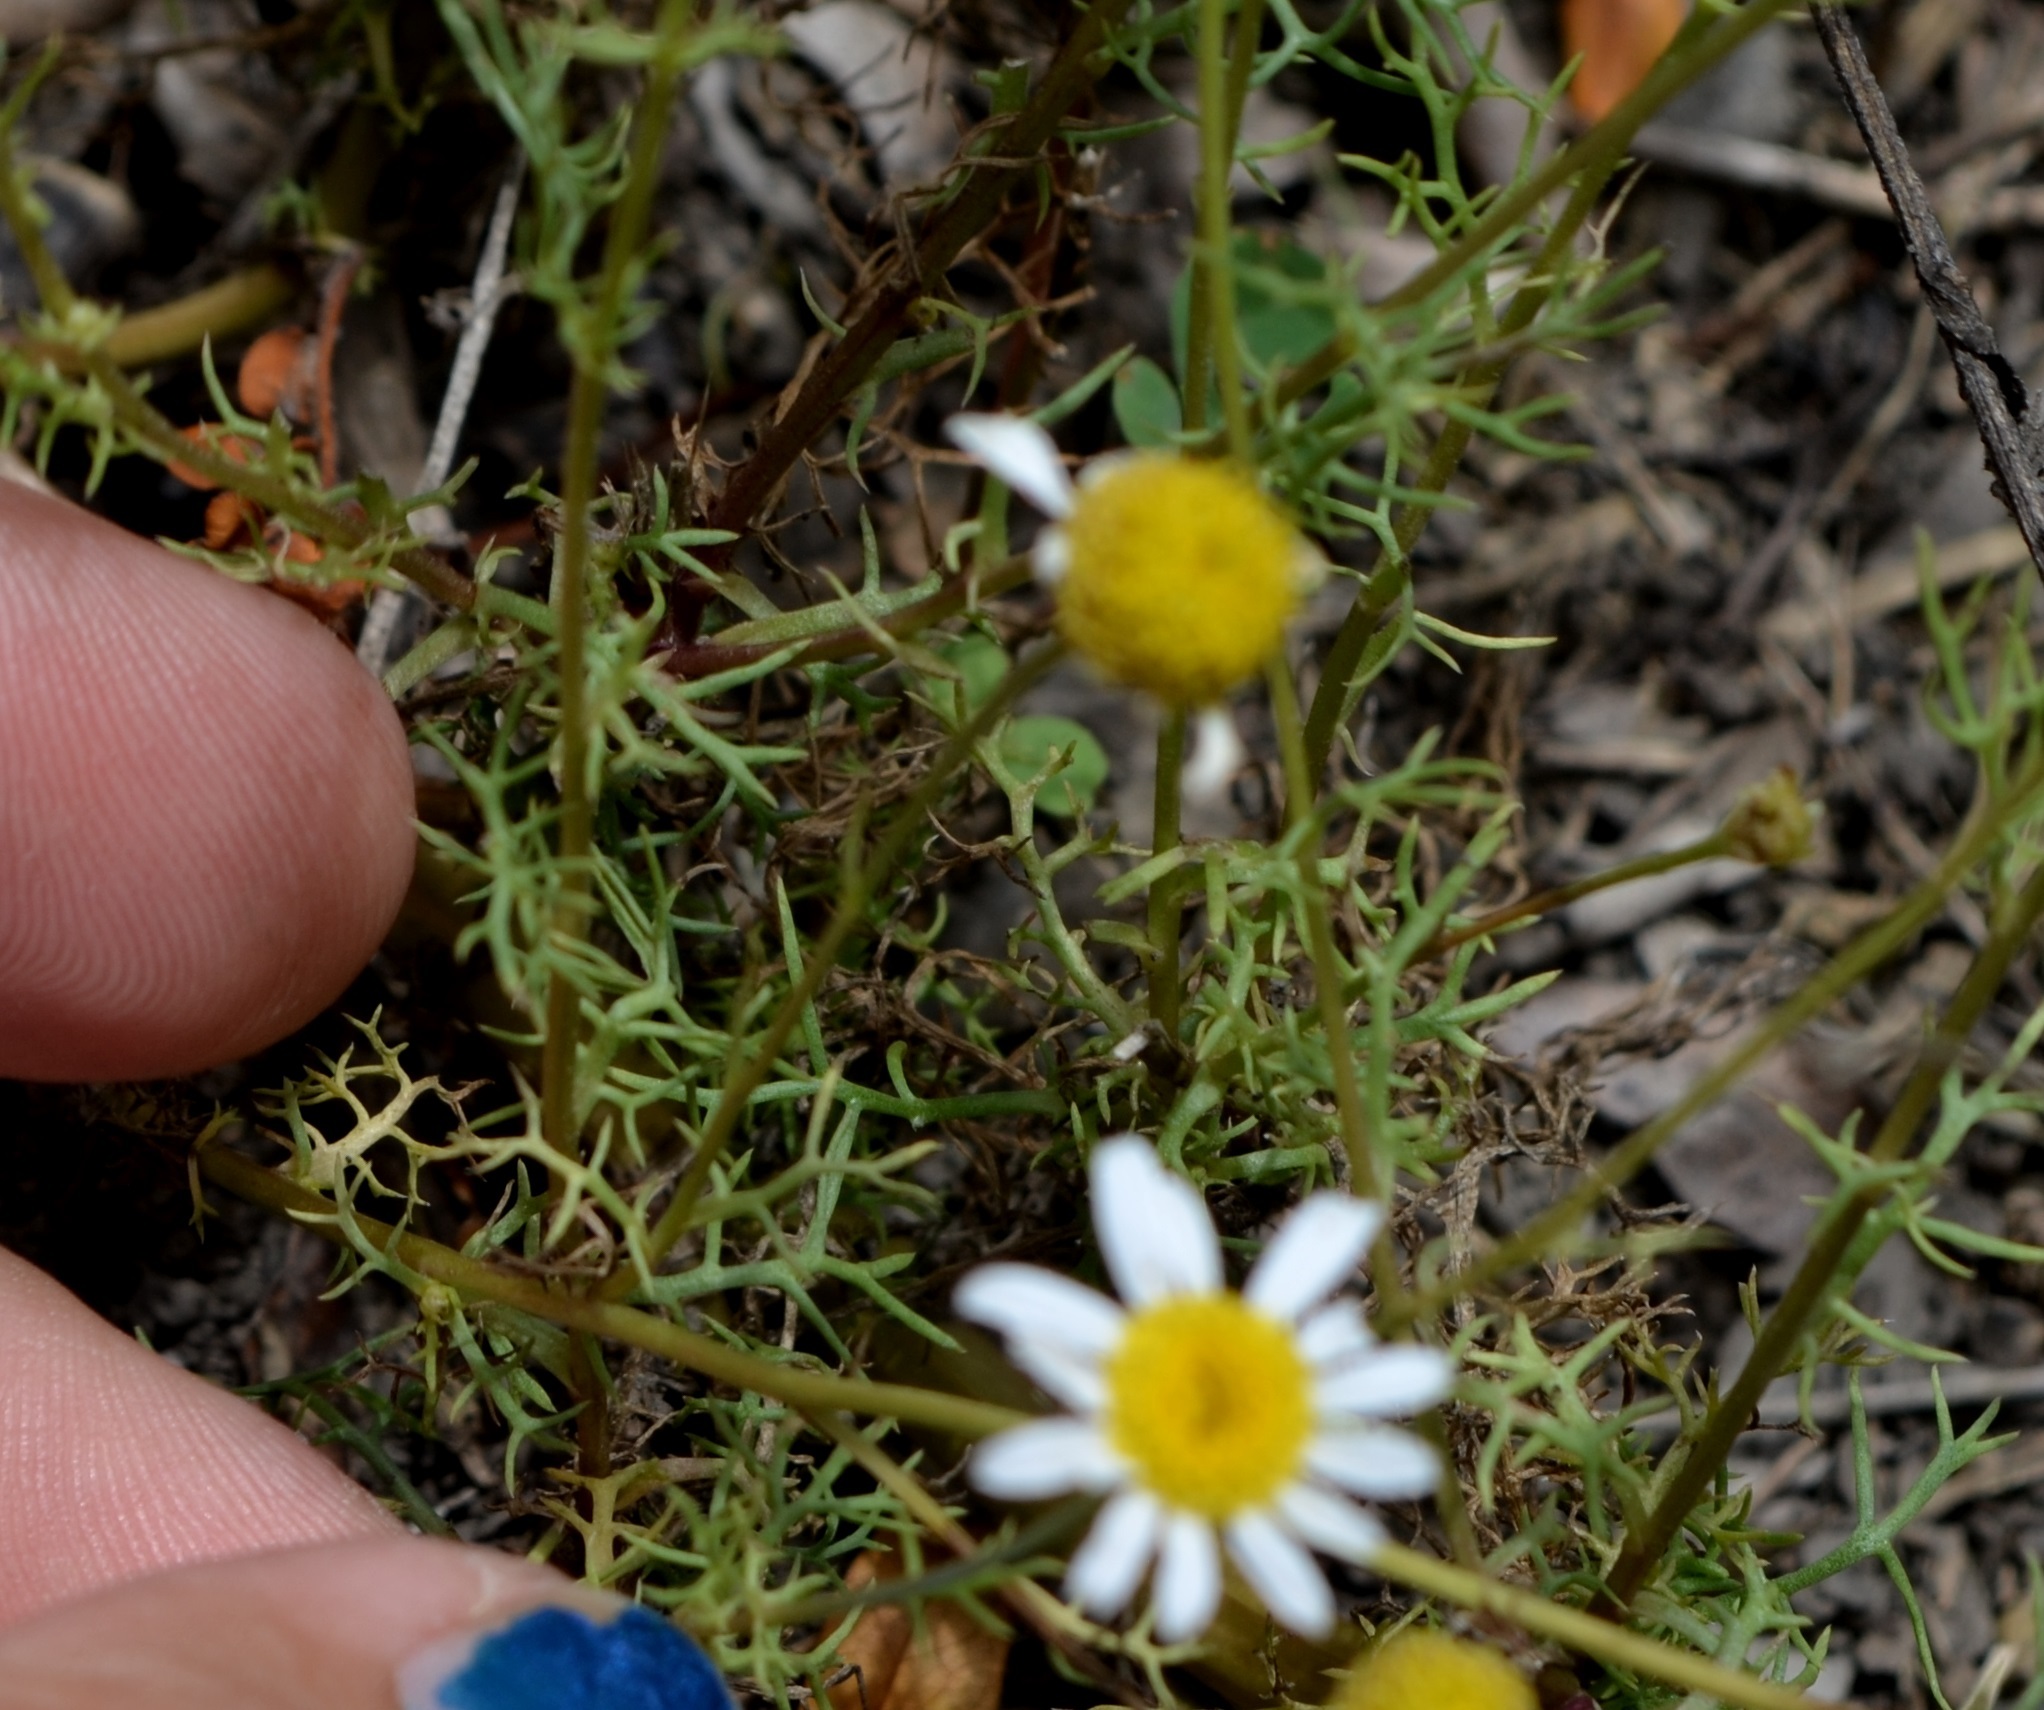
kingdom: Plantae
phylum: Tracheophyta
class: Magnoliopsida
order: Asterales
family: Asteraceae
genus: Anthemis
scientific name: Anthemis cotula
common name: Stinking chamomile
